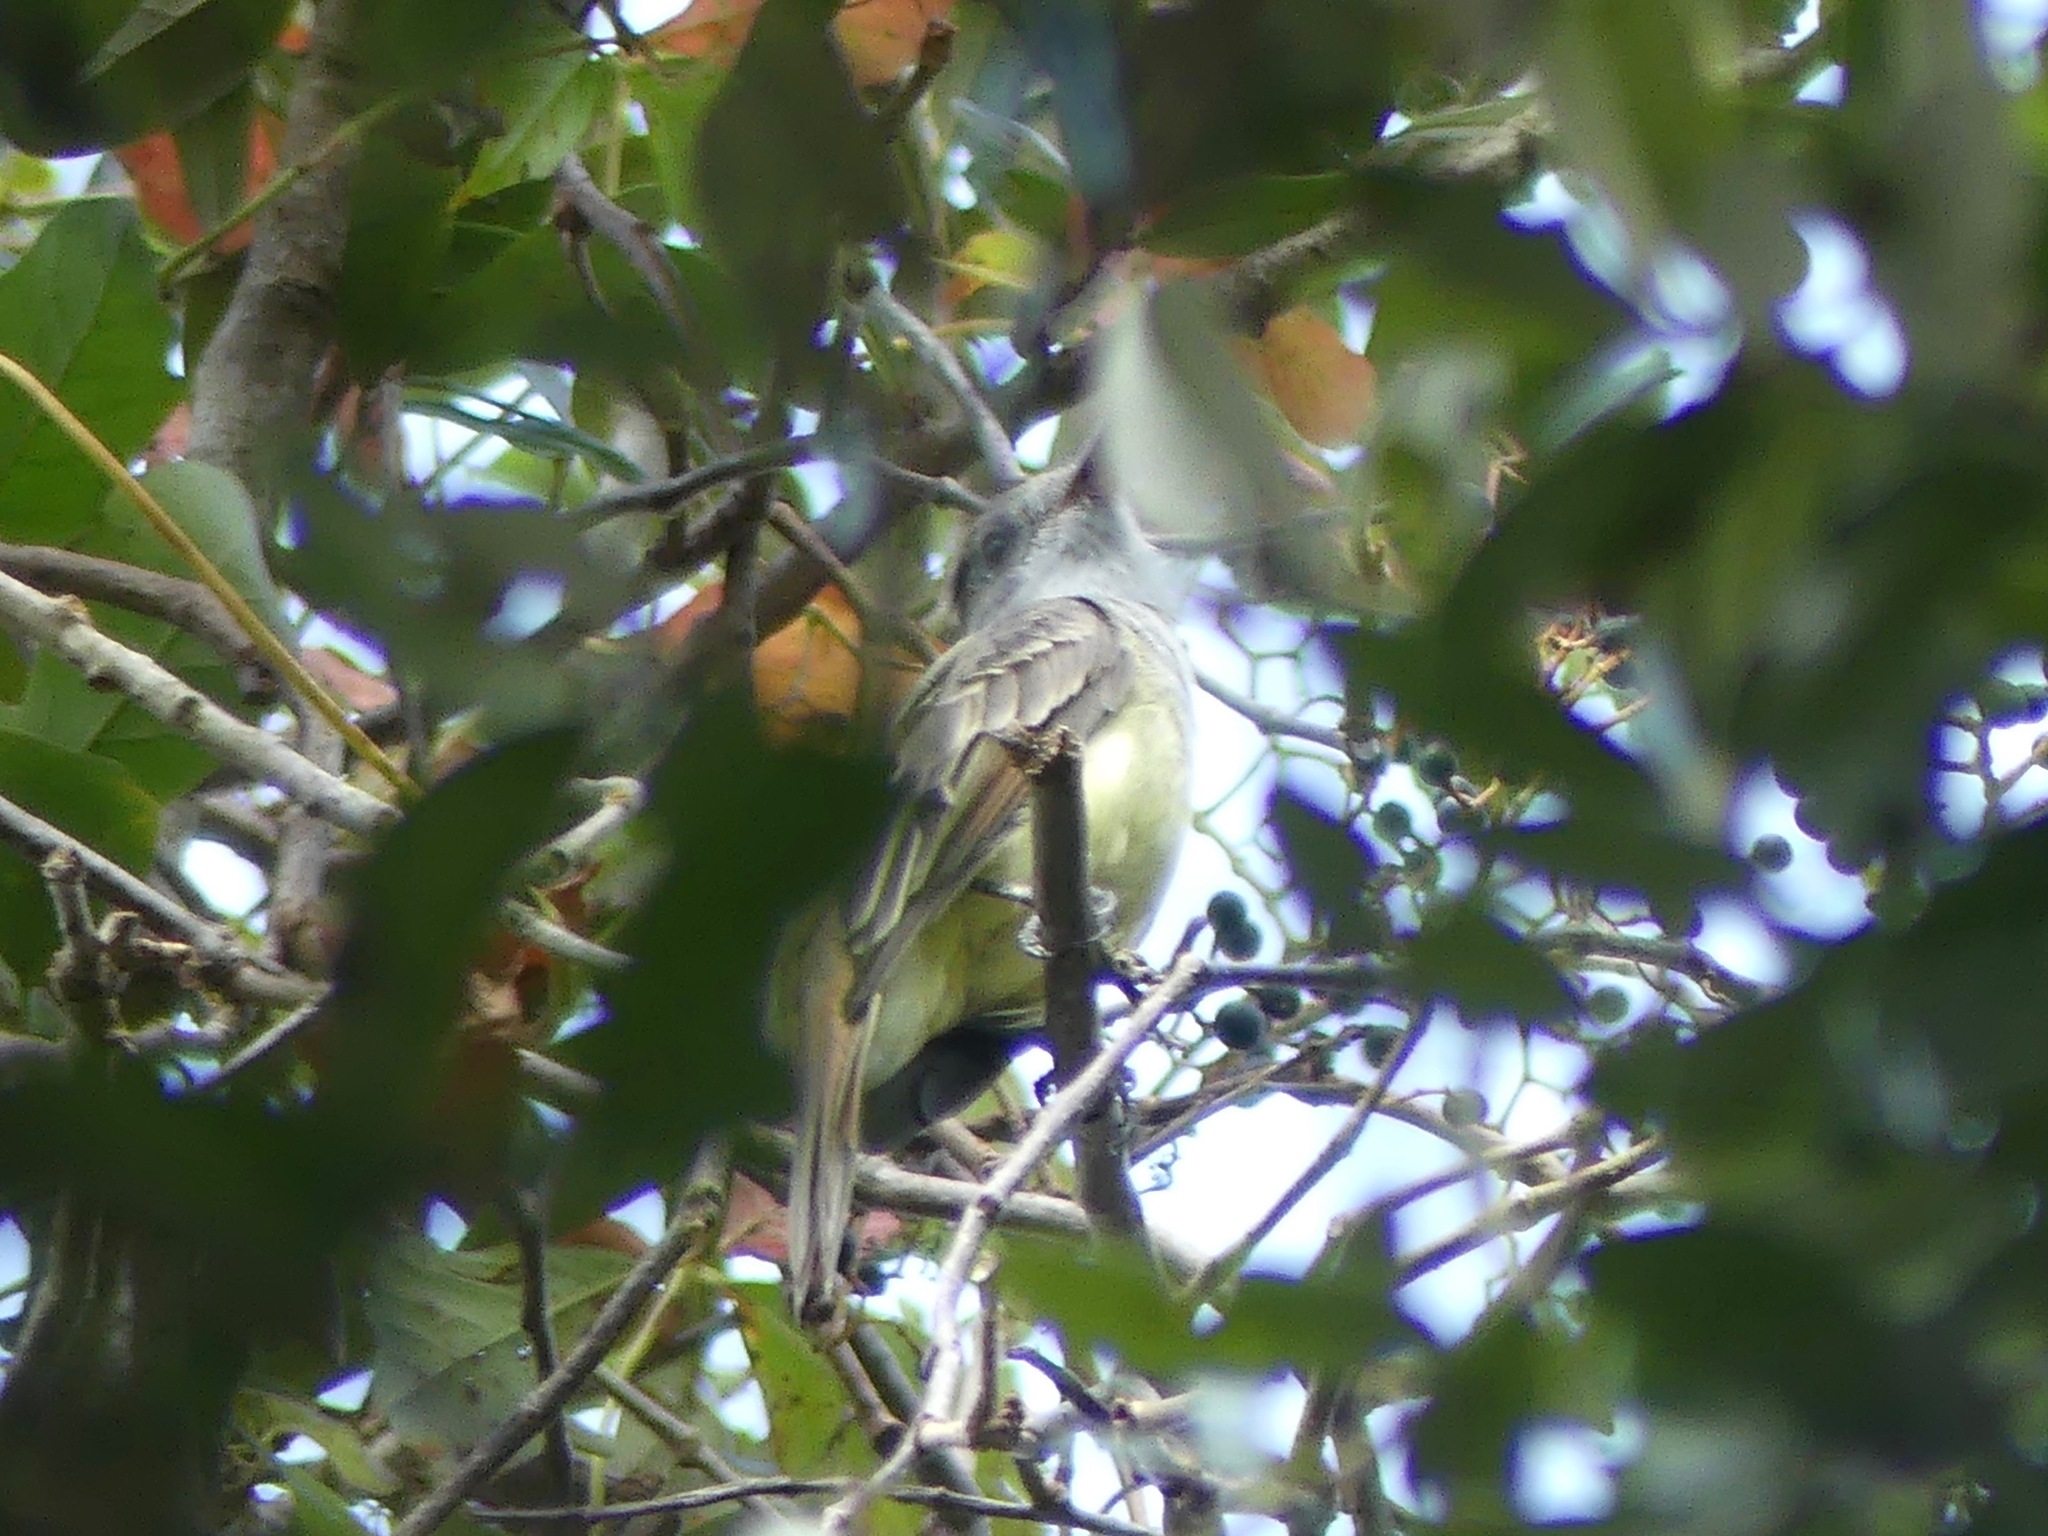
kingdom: Animalia
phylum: Chordata
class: Aves
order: Passeriformes
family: Tyrannidae
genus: Myiarchus
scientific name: Myiarchus crinitus
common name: Great crested flycatcher
